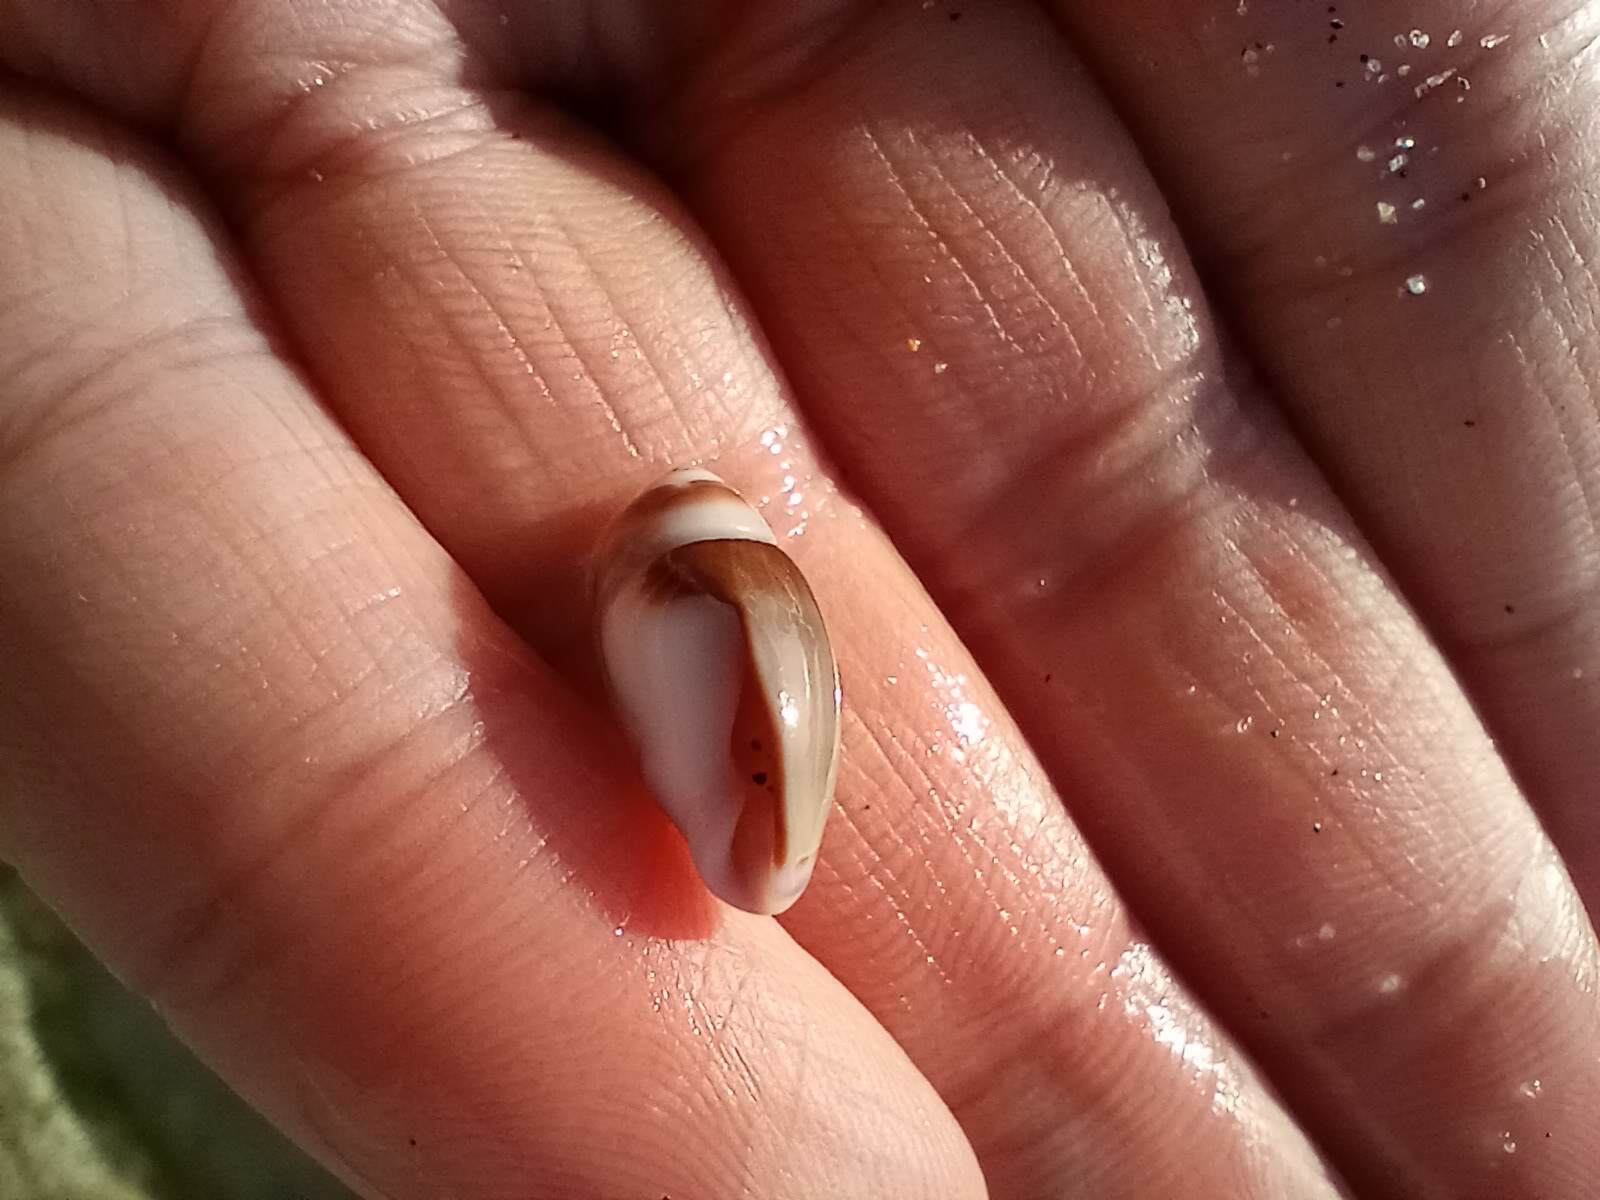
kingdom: Animalia
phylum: Mollusca
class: Gastropoda
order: Neogastropoda
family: Olividae
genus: Callianax
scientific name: Callianax biplicata
